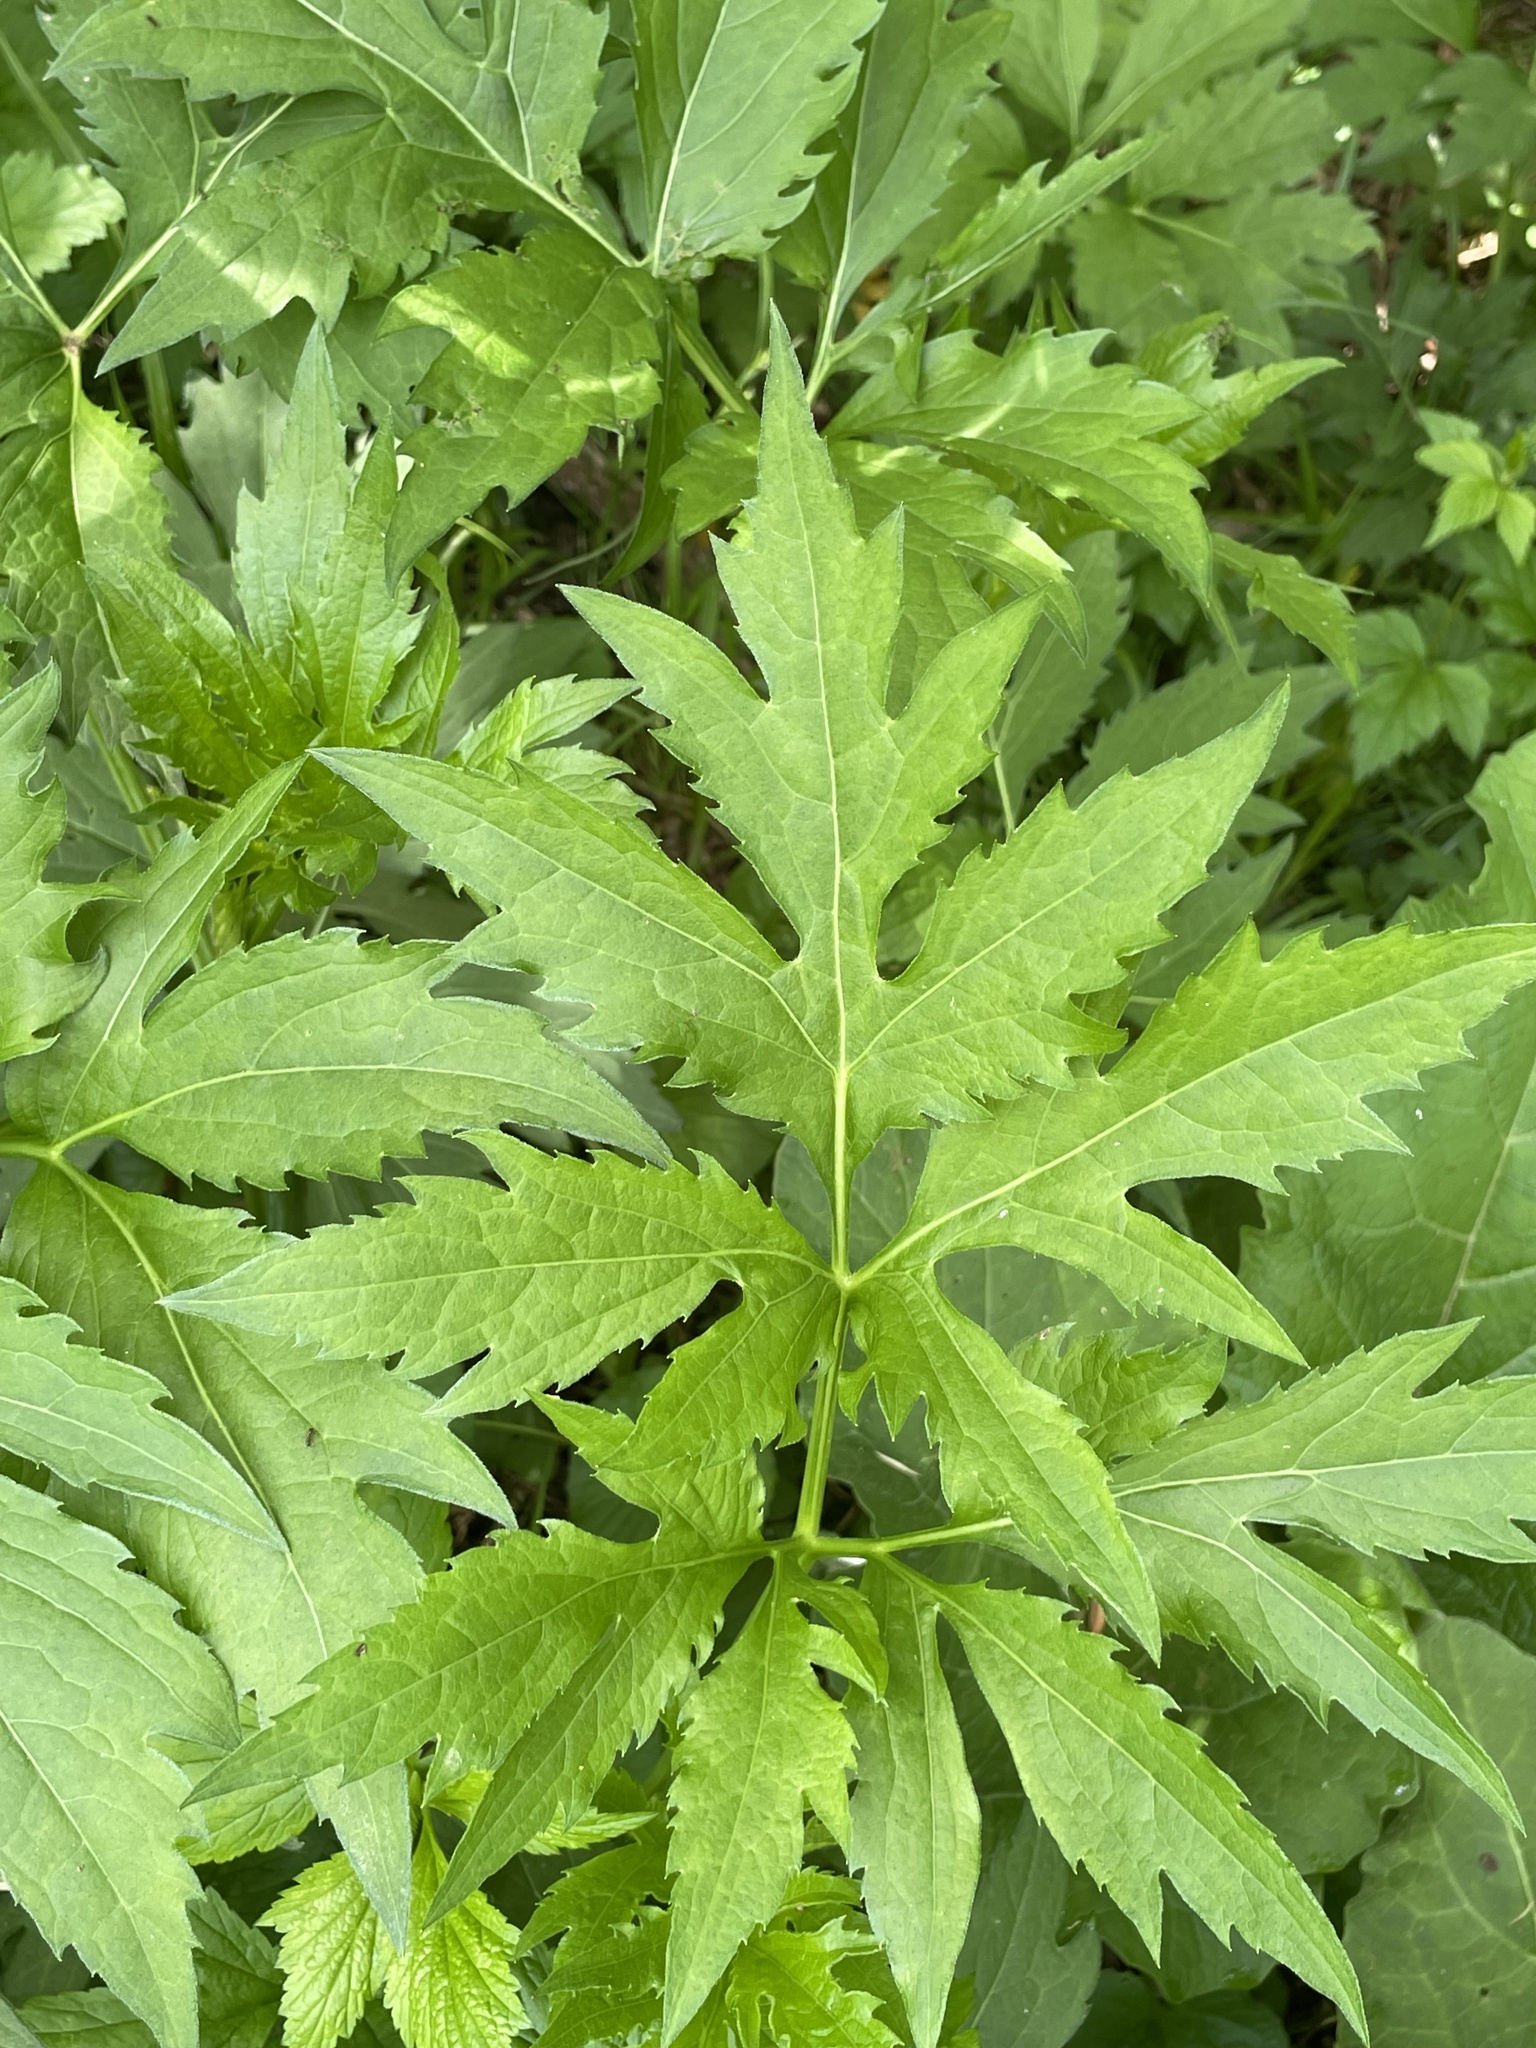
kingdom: Plantae
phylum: Tracheophyta
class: Magnoliopsida
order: Asterales
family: Asteraceae
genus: Rudbeckia
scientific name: Rudbeckia laciniata
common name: Coneflower
